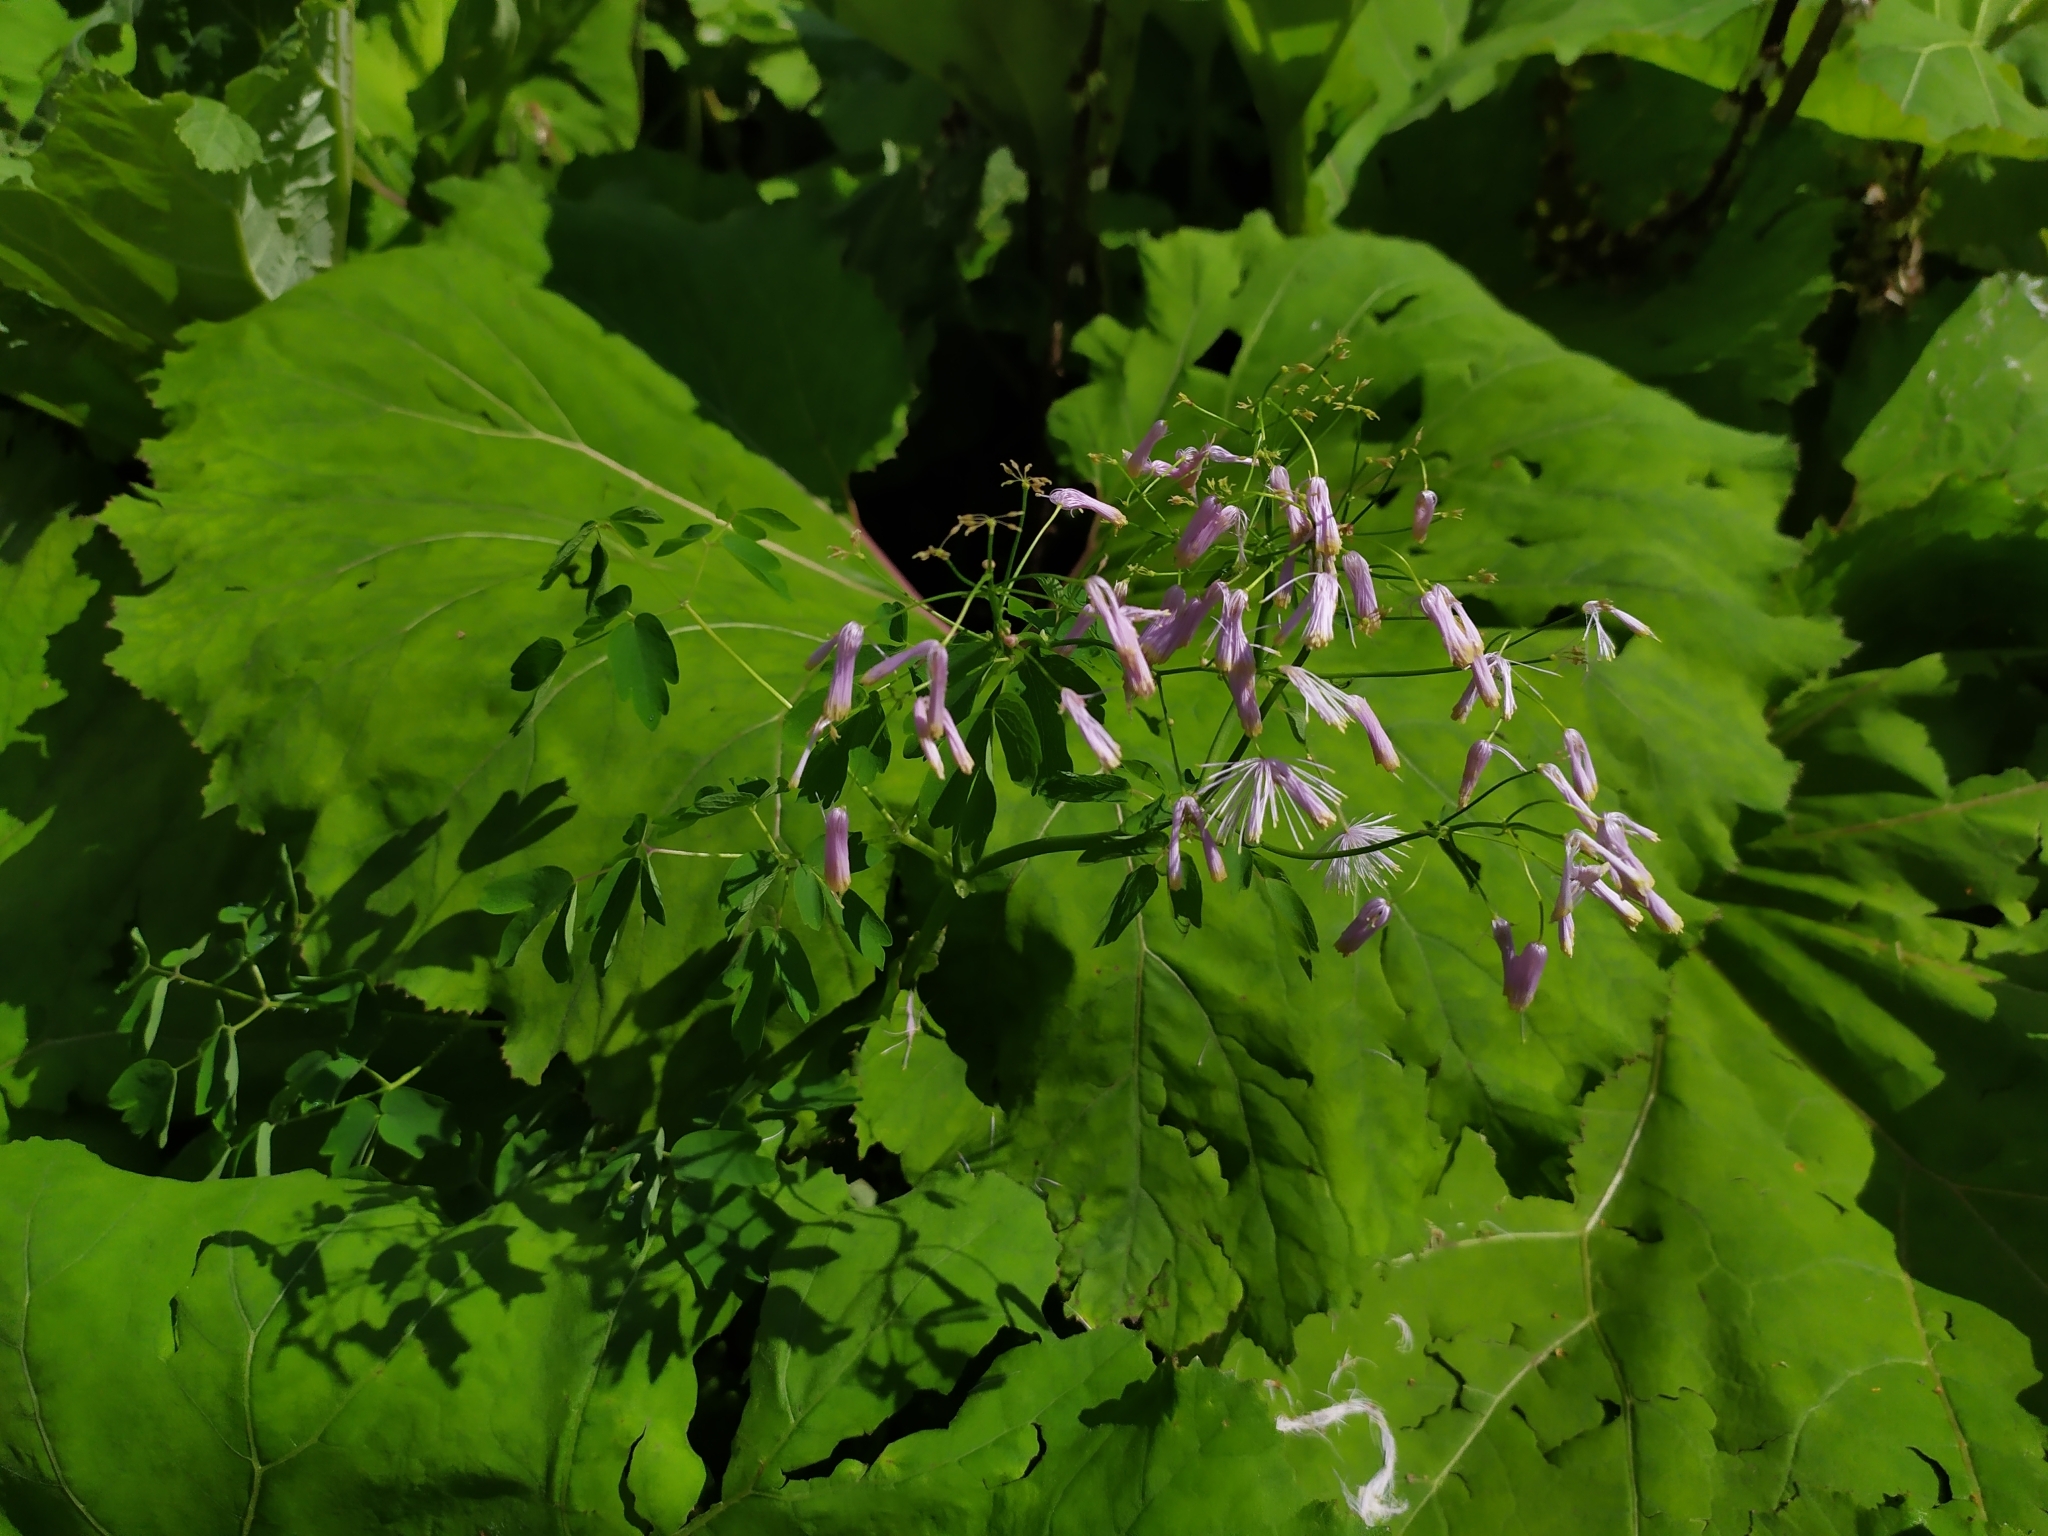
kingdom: Plantae
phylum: Tracheophyta
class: Magnoliopsida
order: Ranunculales
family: Ranunculaceae
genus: Thalictrum
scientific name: Thalictrum aquilegiifolium
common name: French meadow-rue
